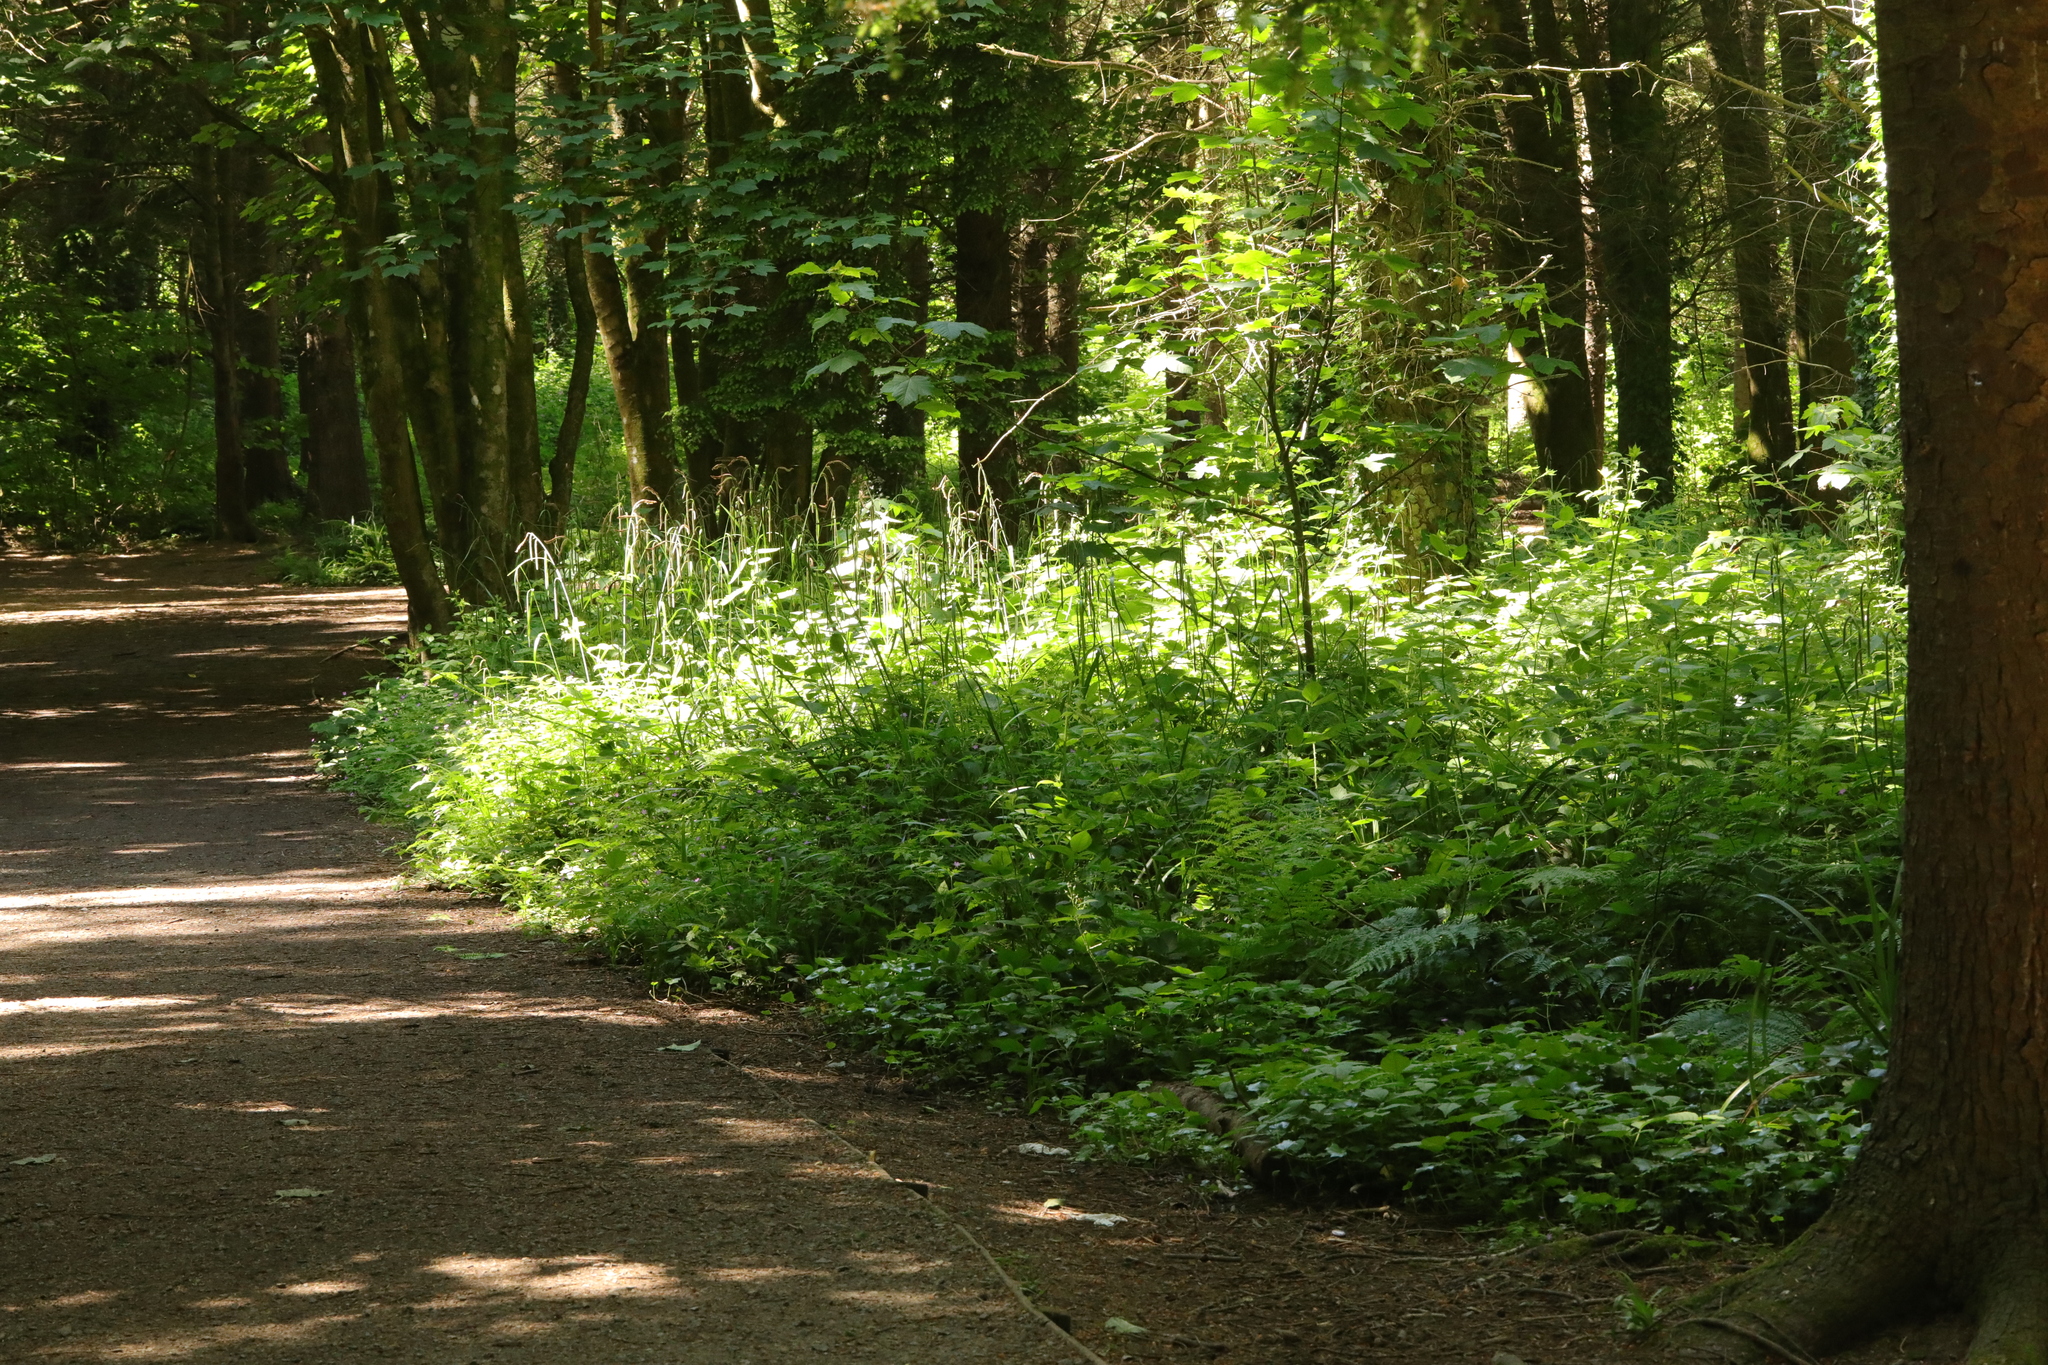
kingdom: Plantae
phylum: Tracheophyta
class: Liliopsida
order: Poales
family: Cyperaceae
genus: Carex
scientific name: Carex pendula
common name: Pendulous sedge
